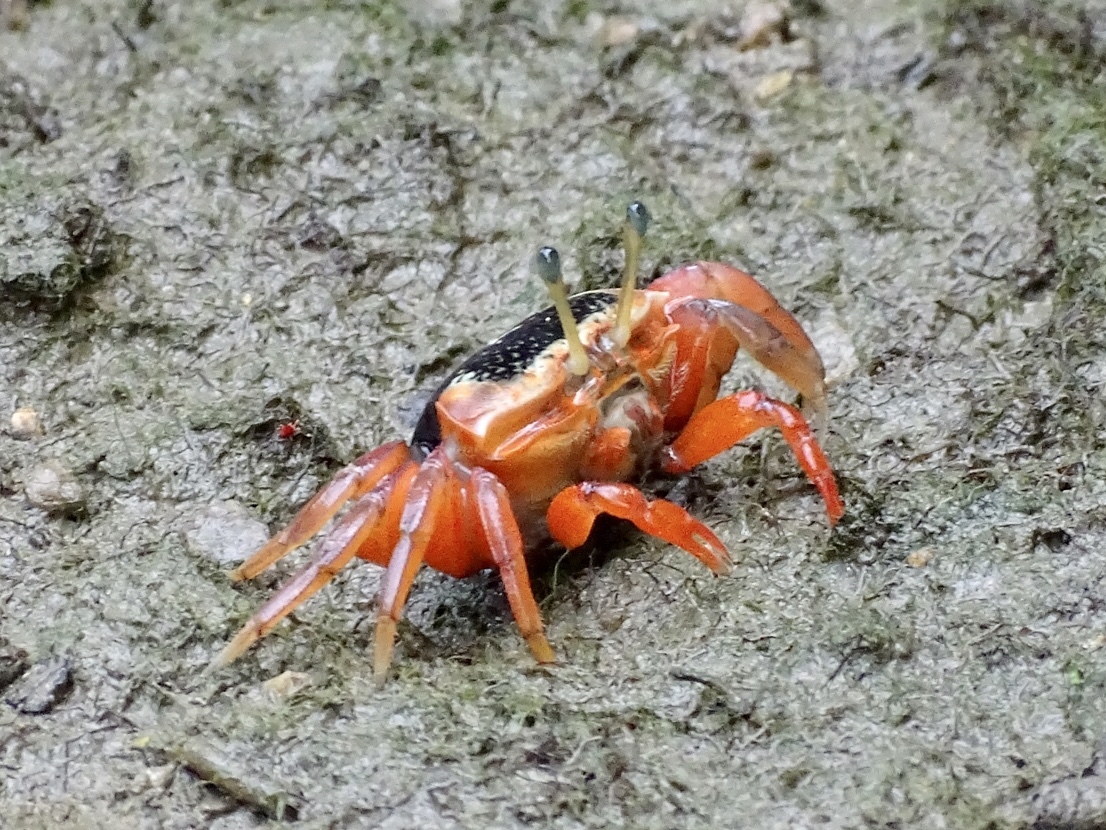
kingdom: Animalia
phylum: Arthropoda
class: Malacostraca
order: Decapoda
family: Ocypodidae
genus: Tubuca
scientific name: Tubuca arcuata
